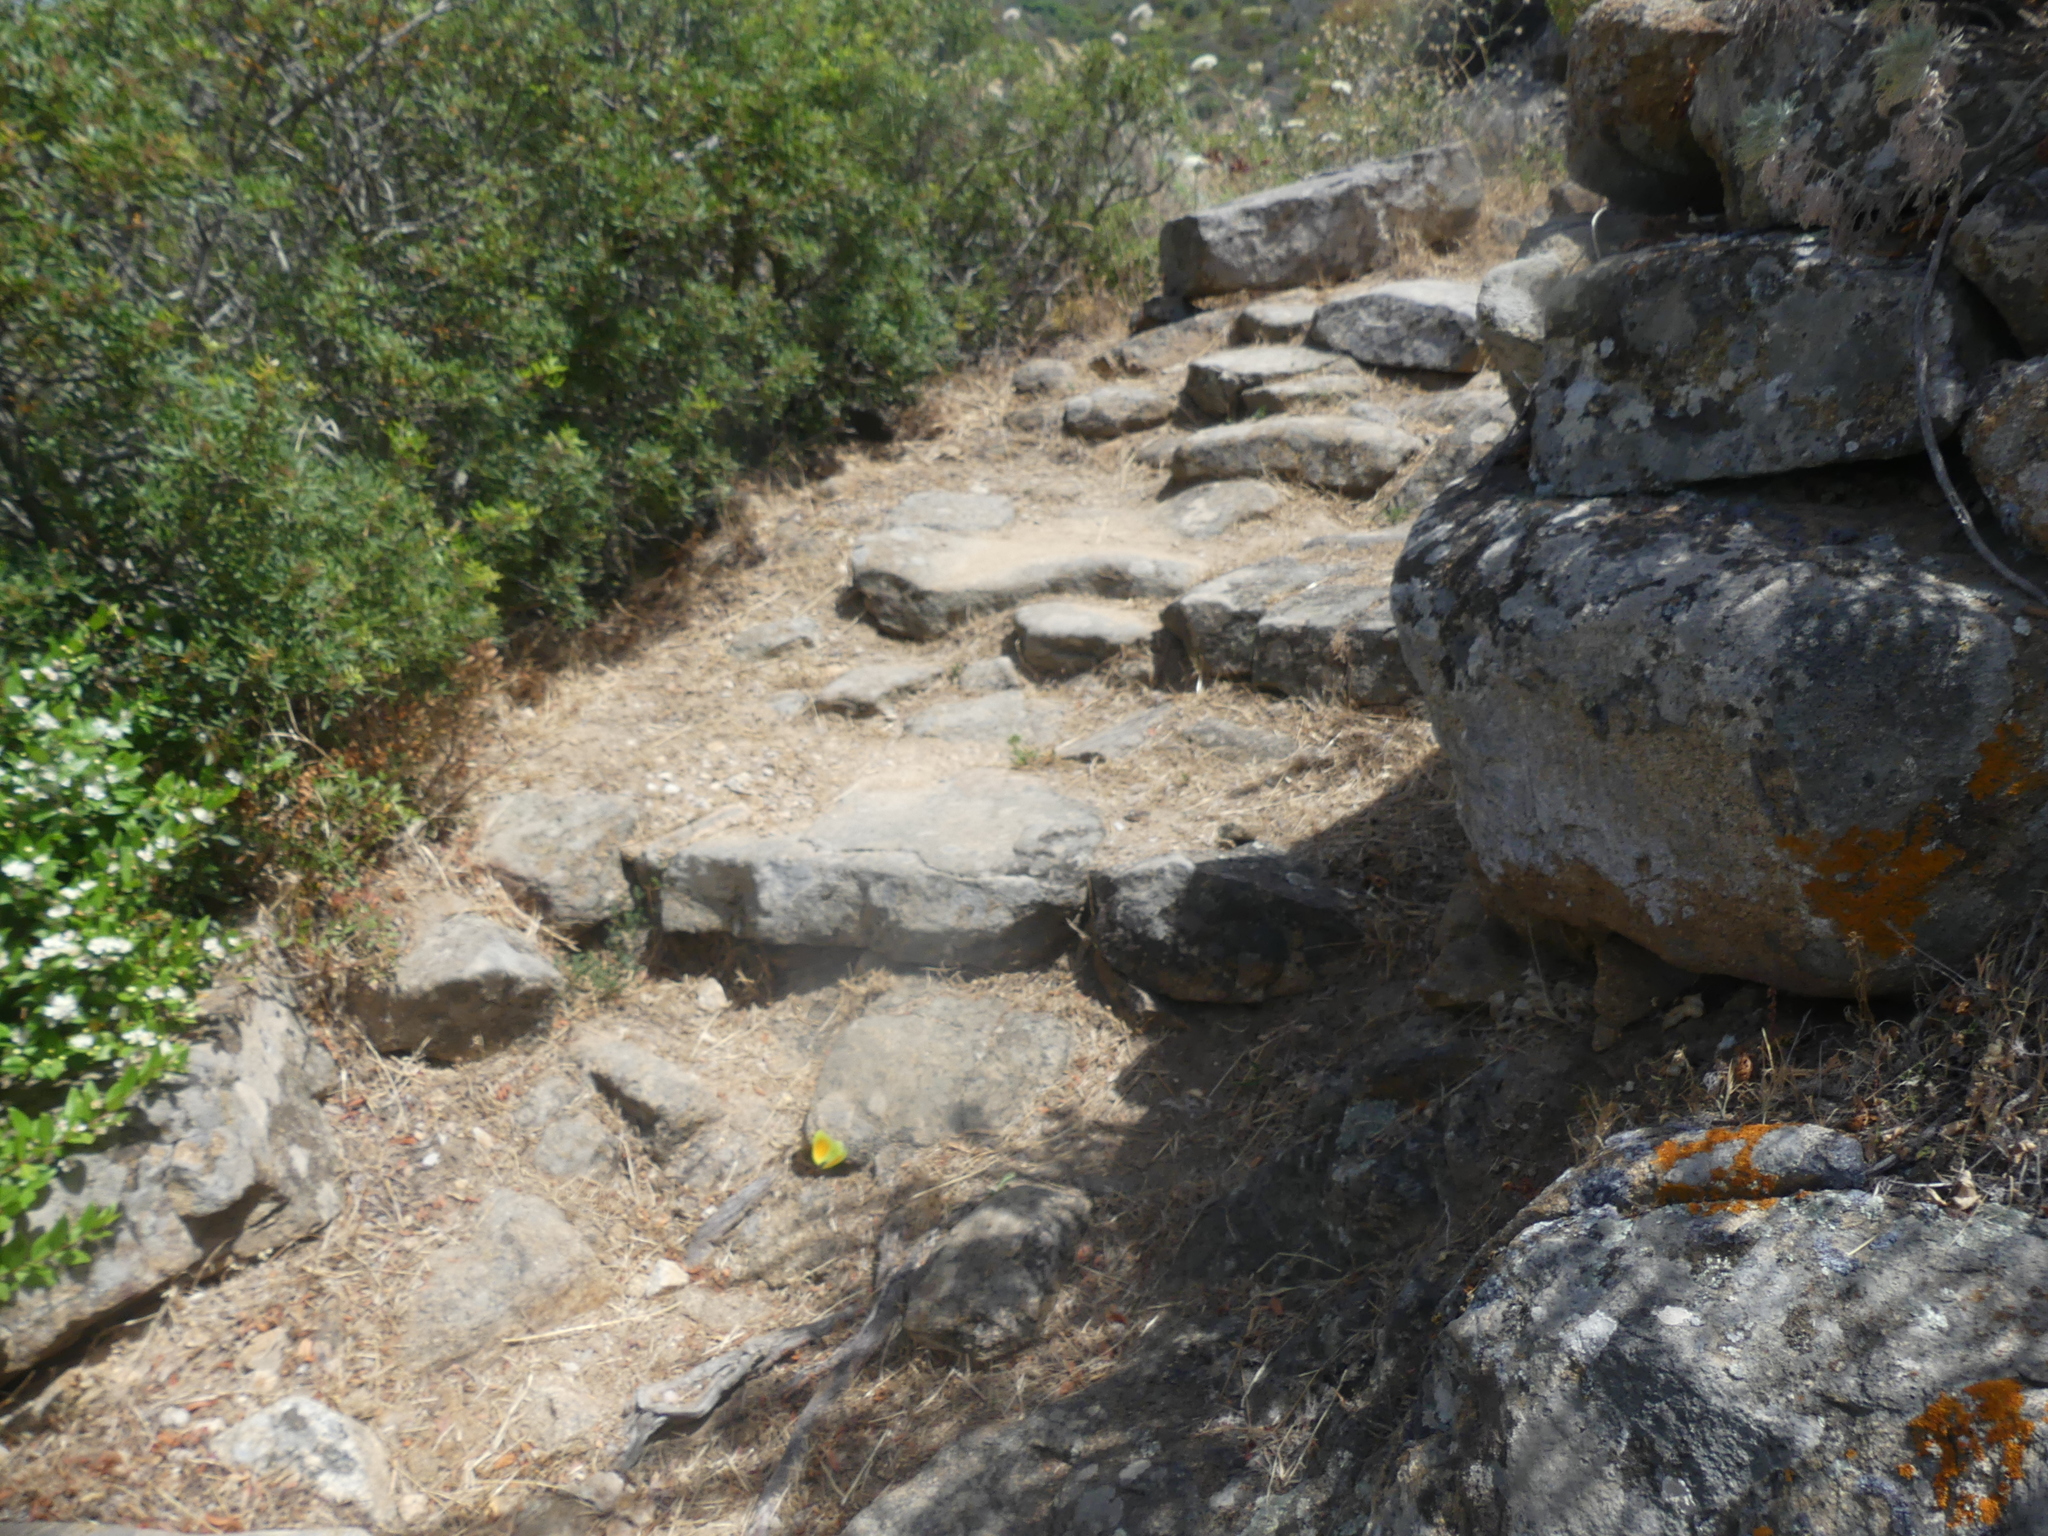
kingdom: Animalia
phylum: Arthropoda
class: Insecta
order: Lepidoptera
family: Pieridae
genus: Gonepteryx
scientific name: Gonepteryx cleopatra
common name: Cleopatra
